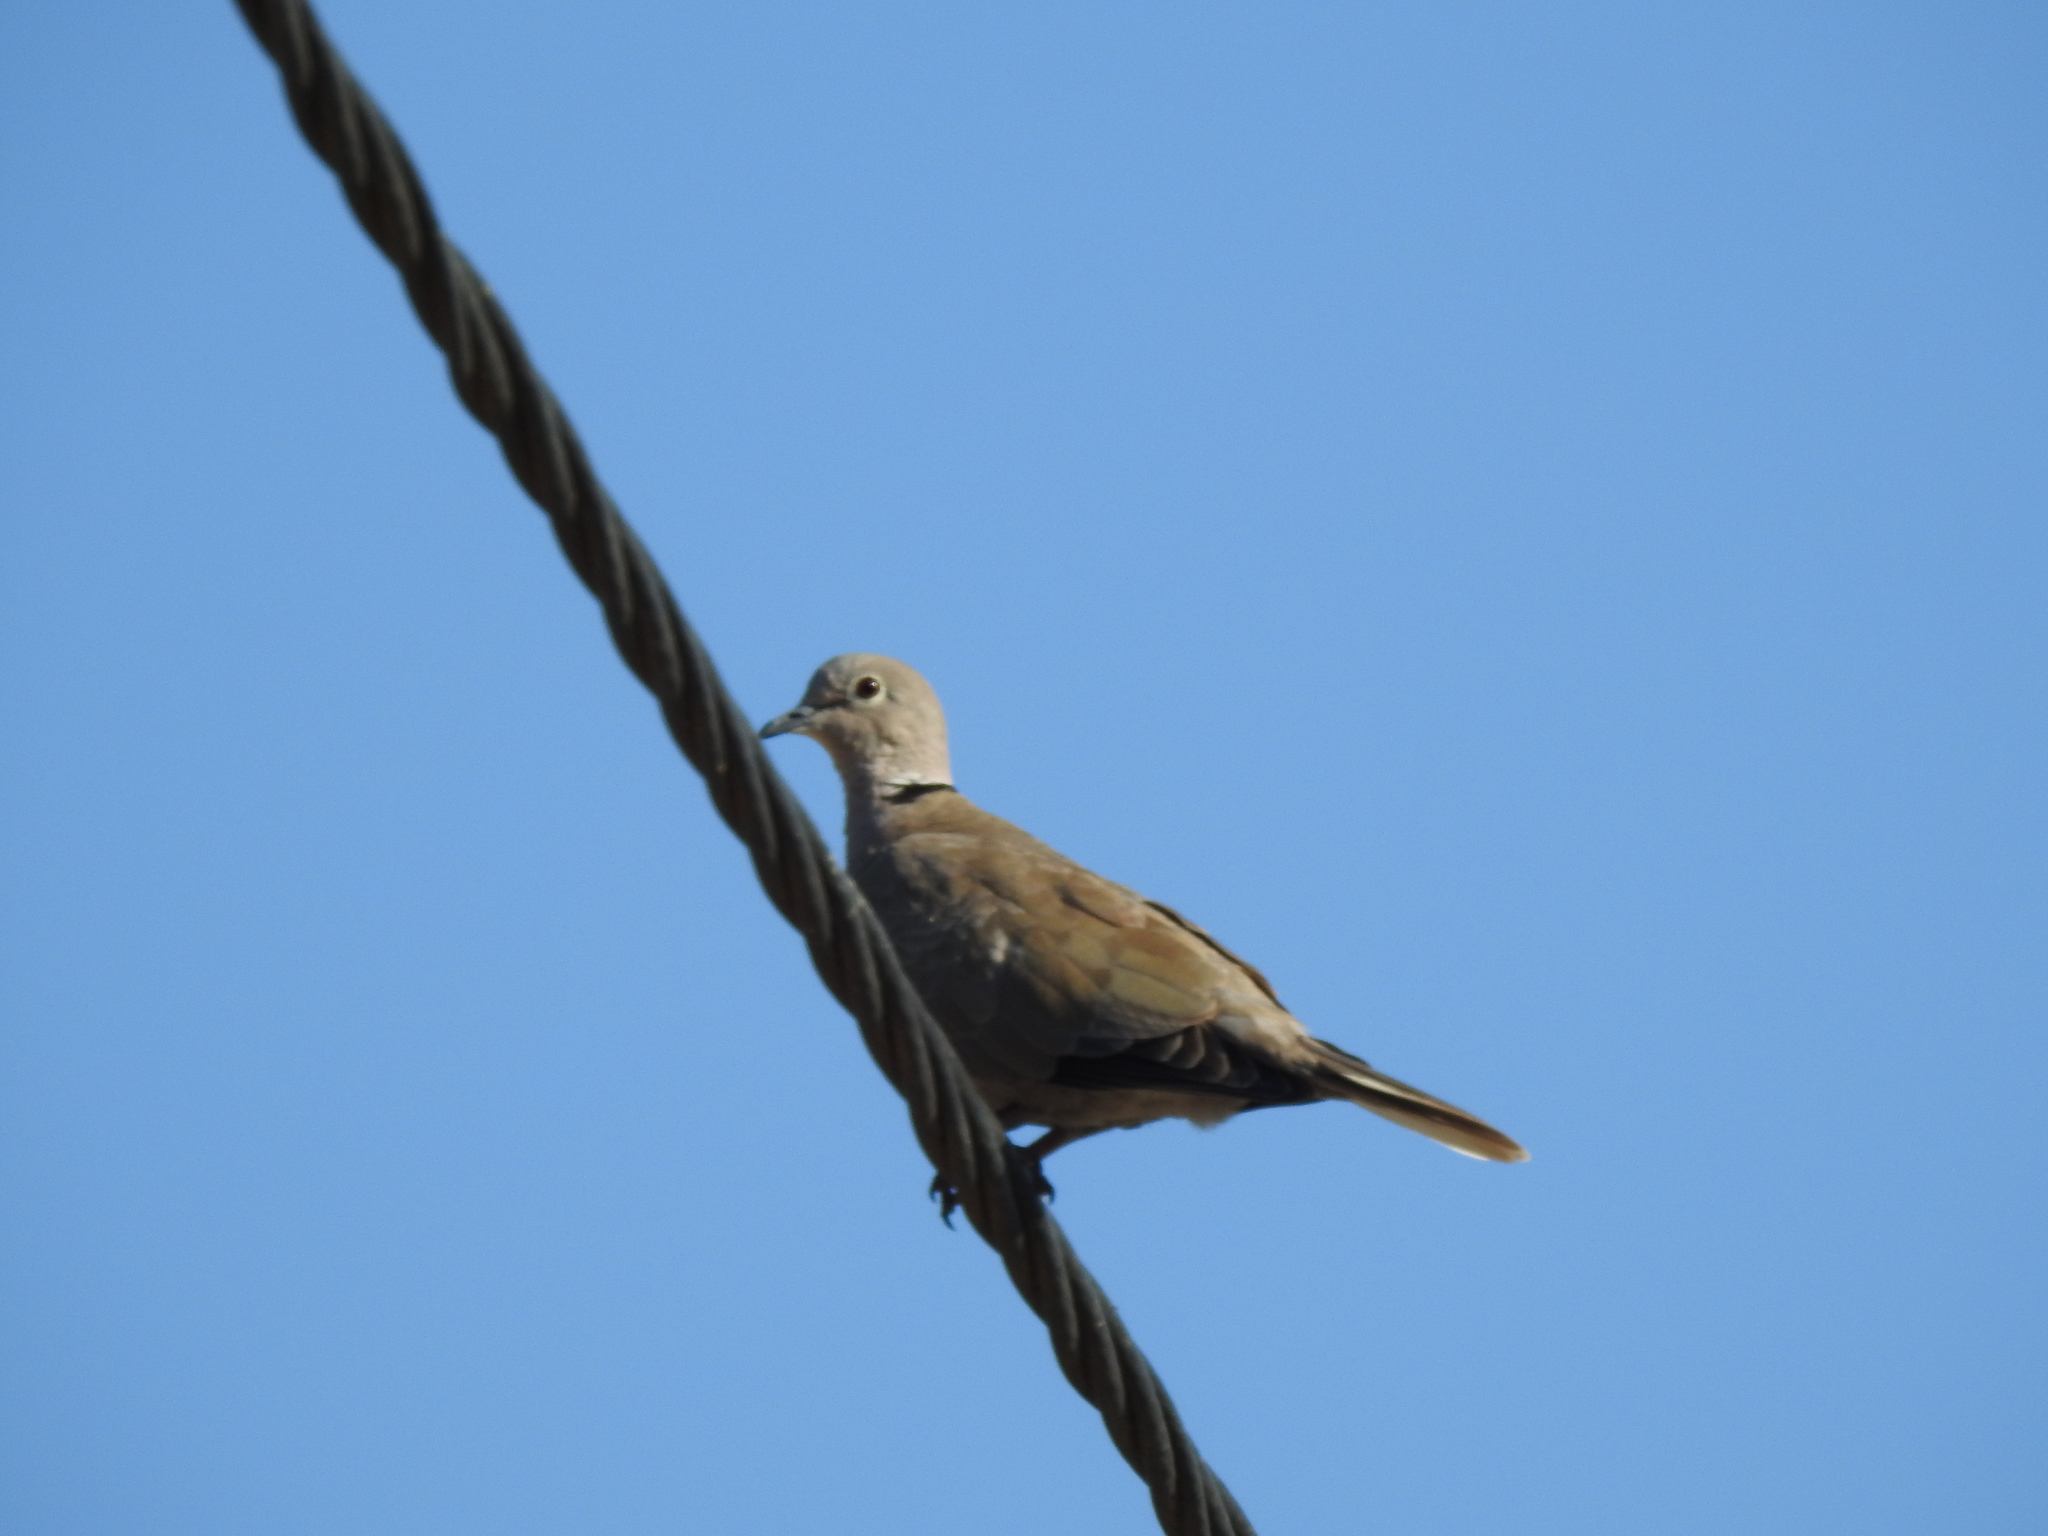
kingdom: Animalia
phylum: Chordata
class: Aves
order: Columbiformes
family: Columbidae
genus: Streptopelia
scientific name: Streptopelia decaocto
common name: Eurasian collared dove
